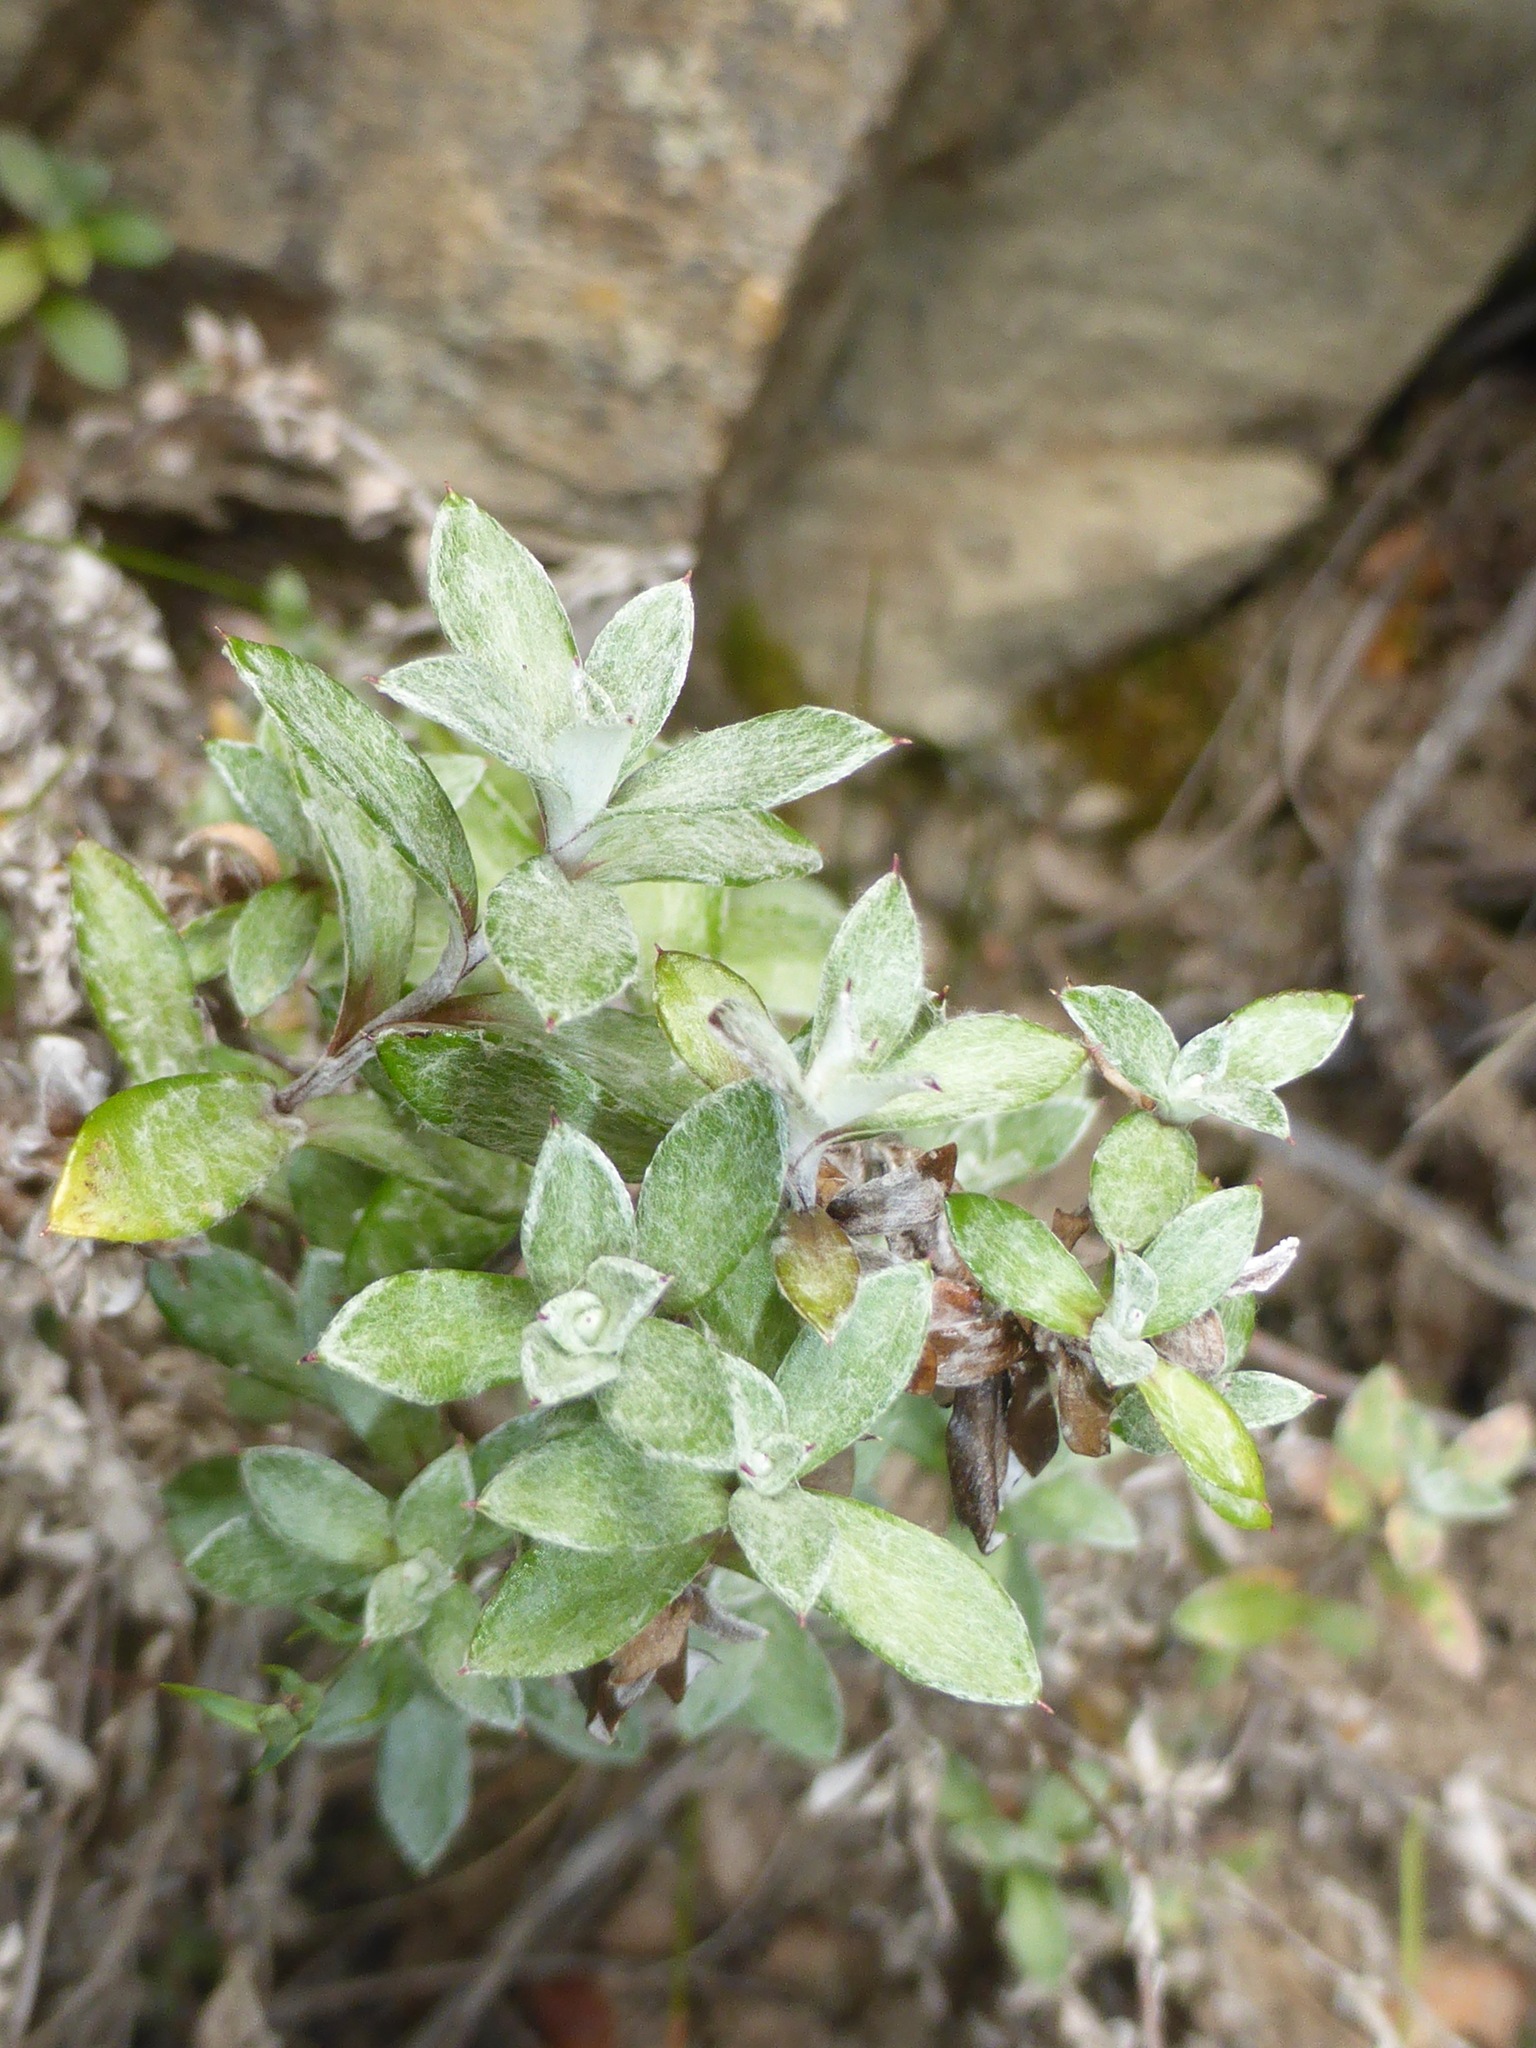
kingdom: Plantae
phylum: Tracheophyta
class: Magnoliopsida
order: Asterales
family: Asteraceae
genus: Anaphalioides
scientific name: Anaphalioides bellidioides
